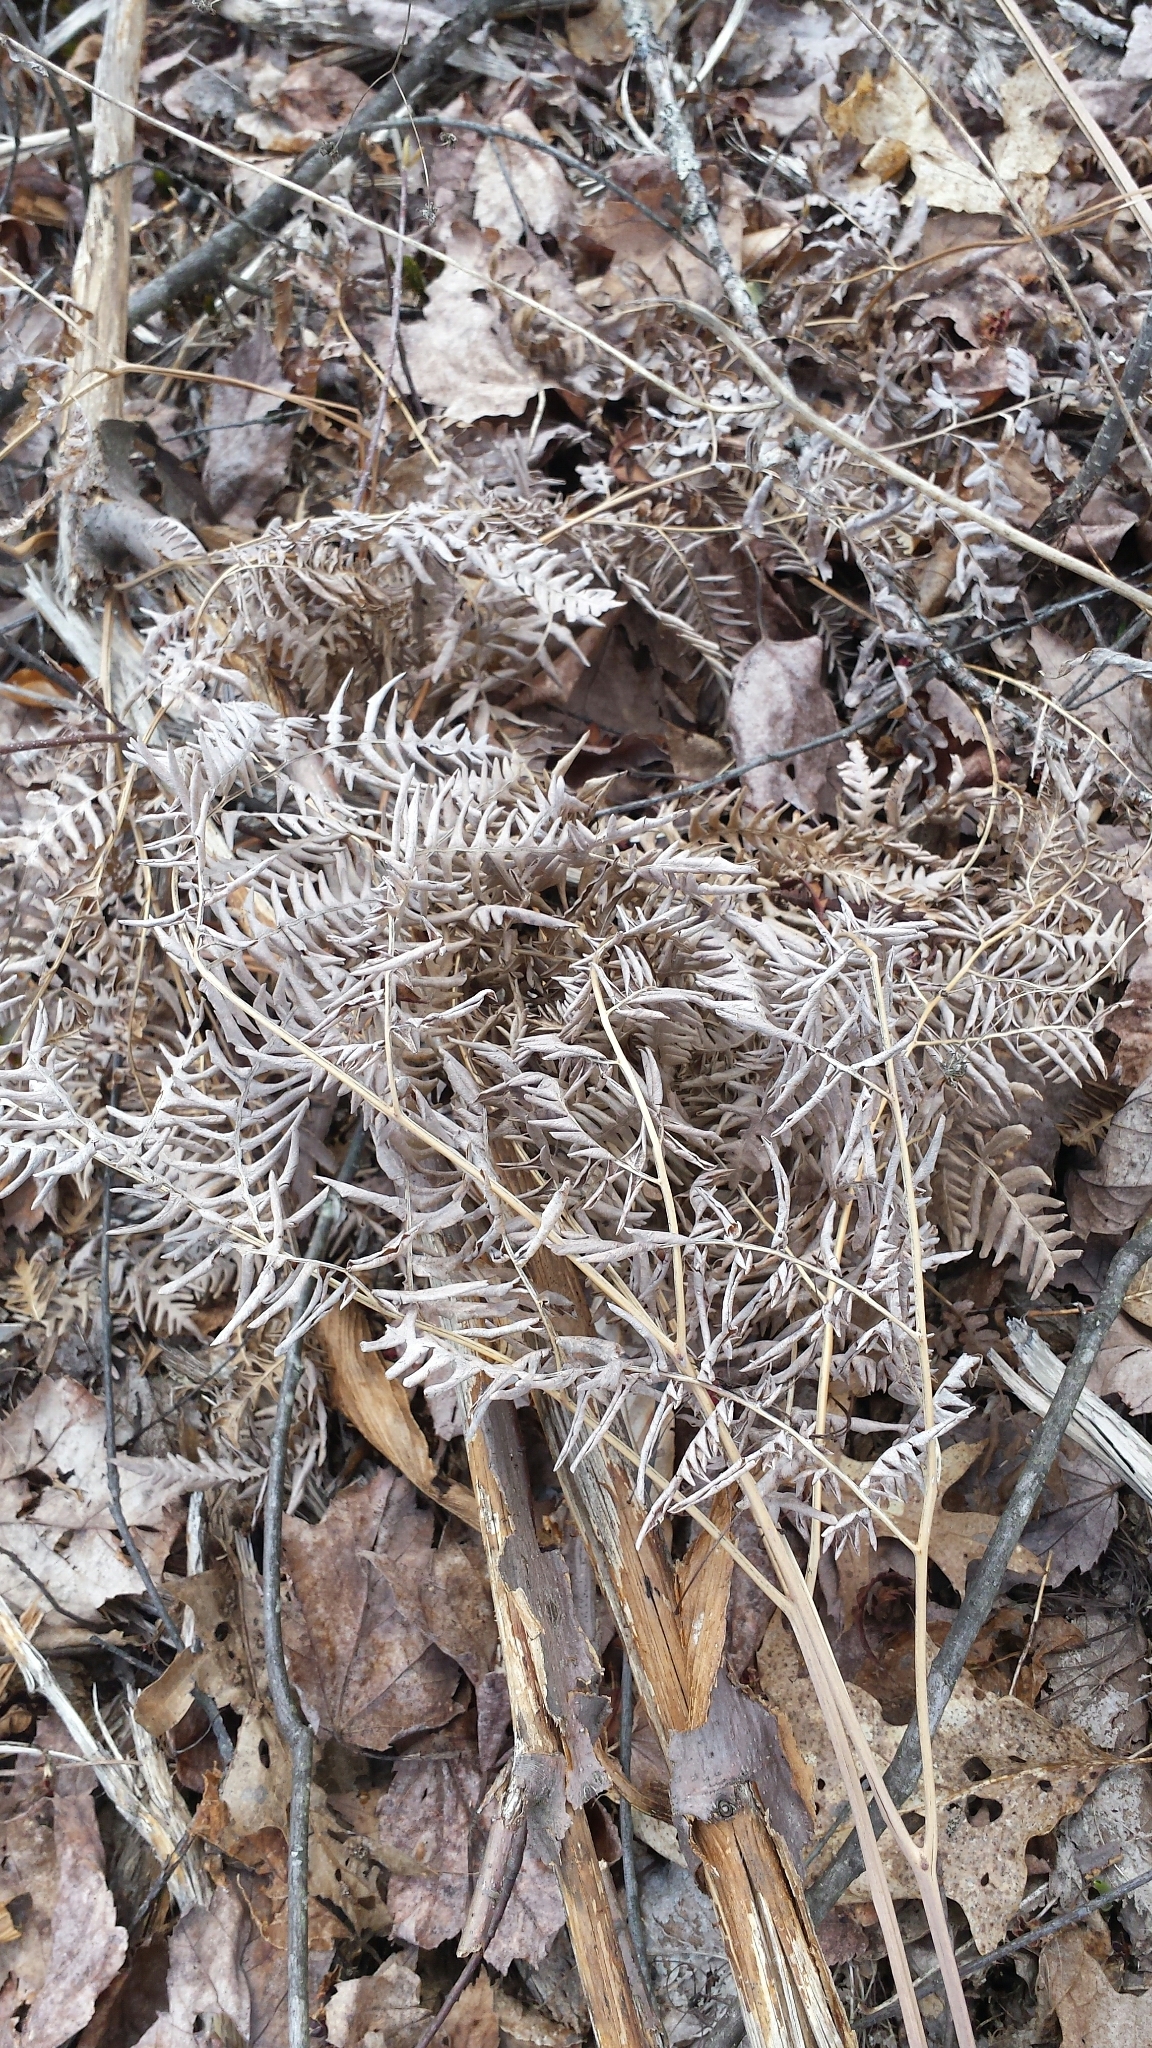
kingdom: Plantae
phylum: Tracheophyta
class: Polypodiopsida
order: Polypodiales
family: Dennstaedtiaceae
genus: Pteridium
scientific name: Pteridium aquilinum
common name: Bracken
